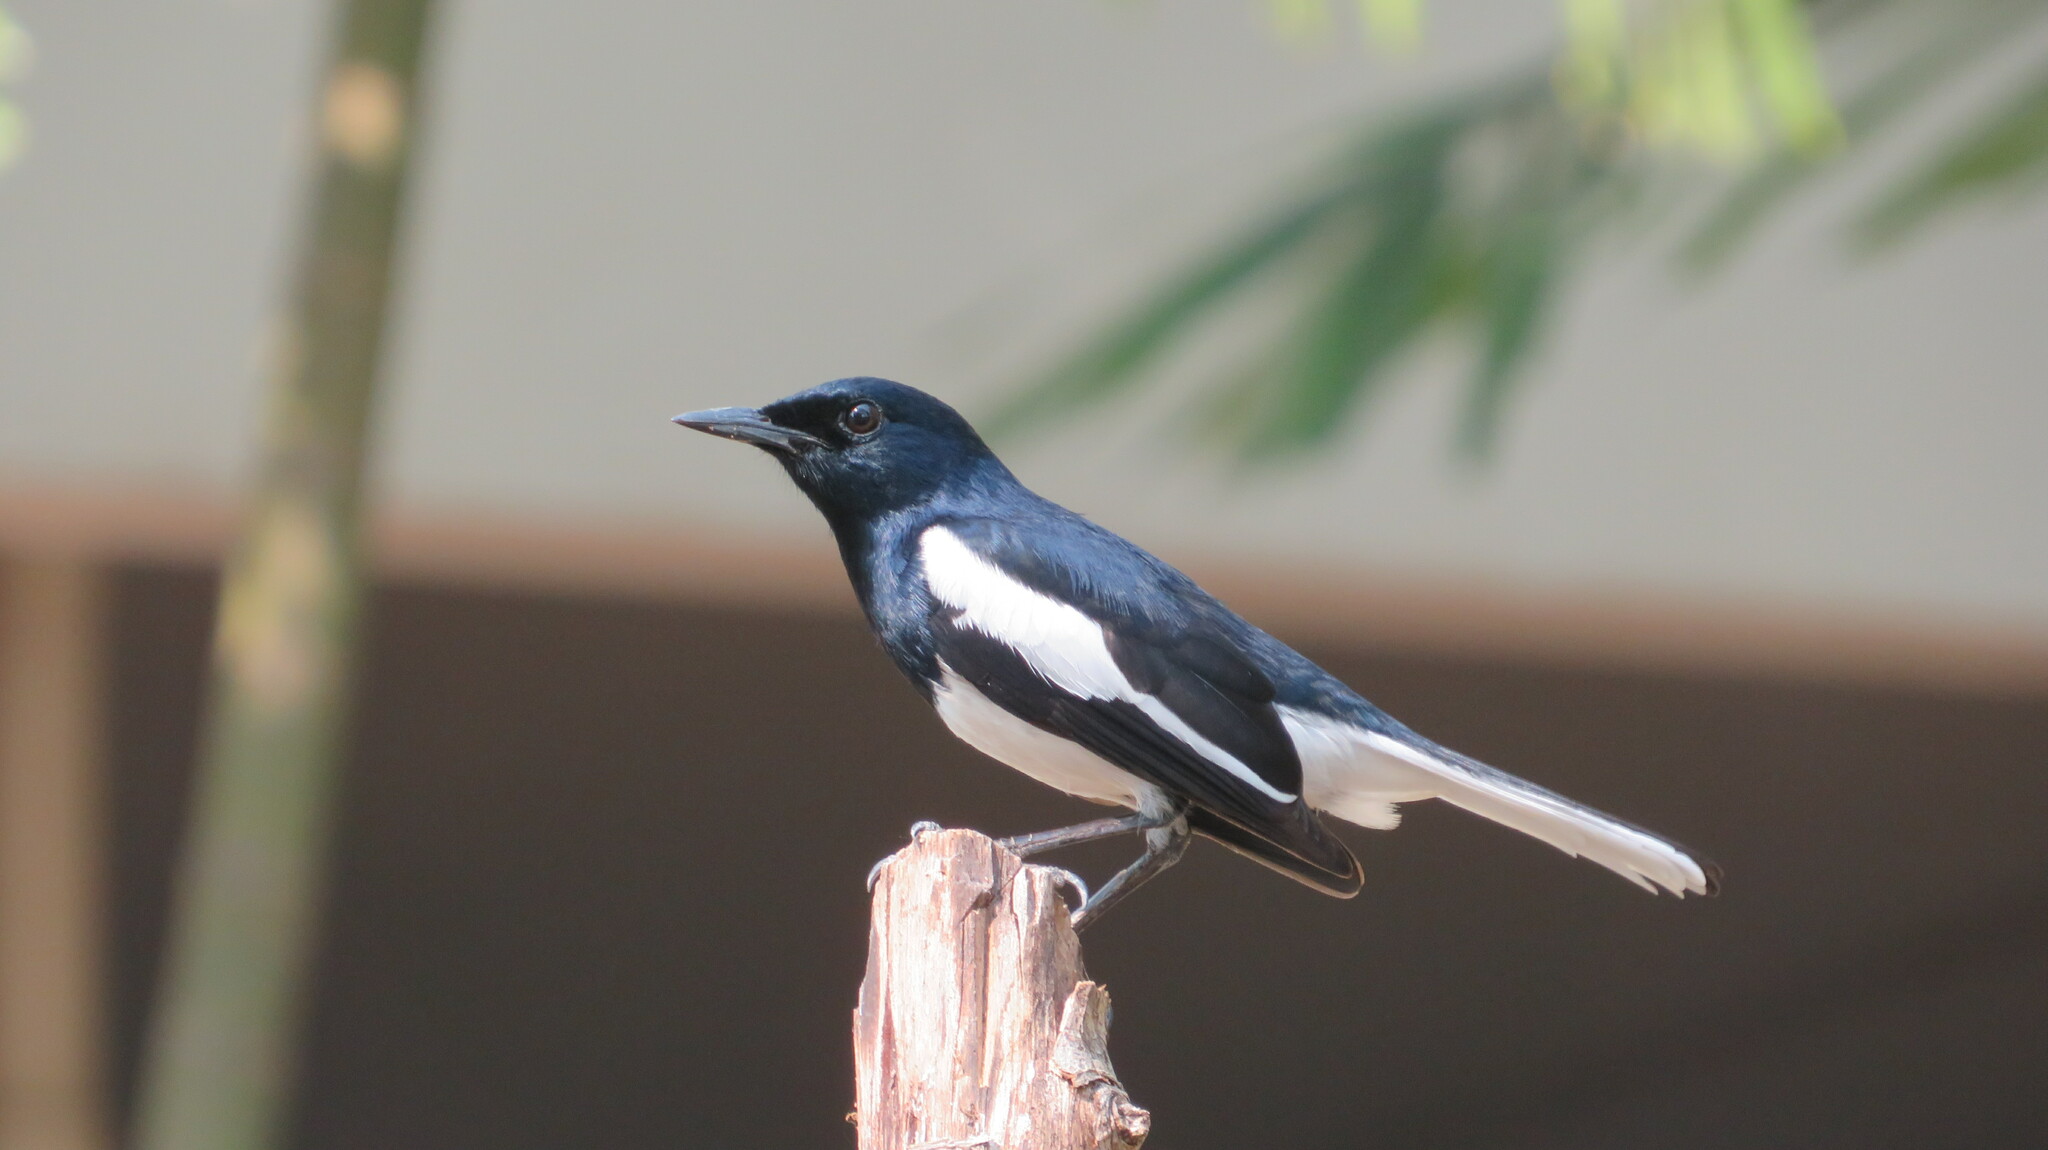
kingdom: Animalia
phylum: Chordata
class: Aves
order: Passeriformes
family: Muscicapidae
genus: Copsychus
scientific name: Copsychus saularis
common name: Oriental magpie-robin
